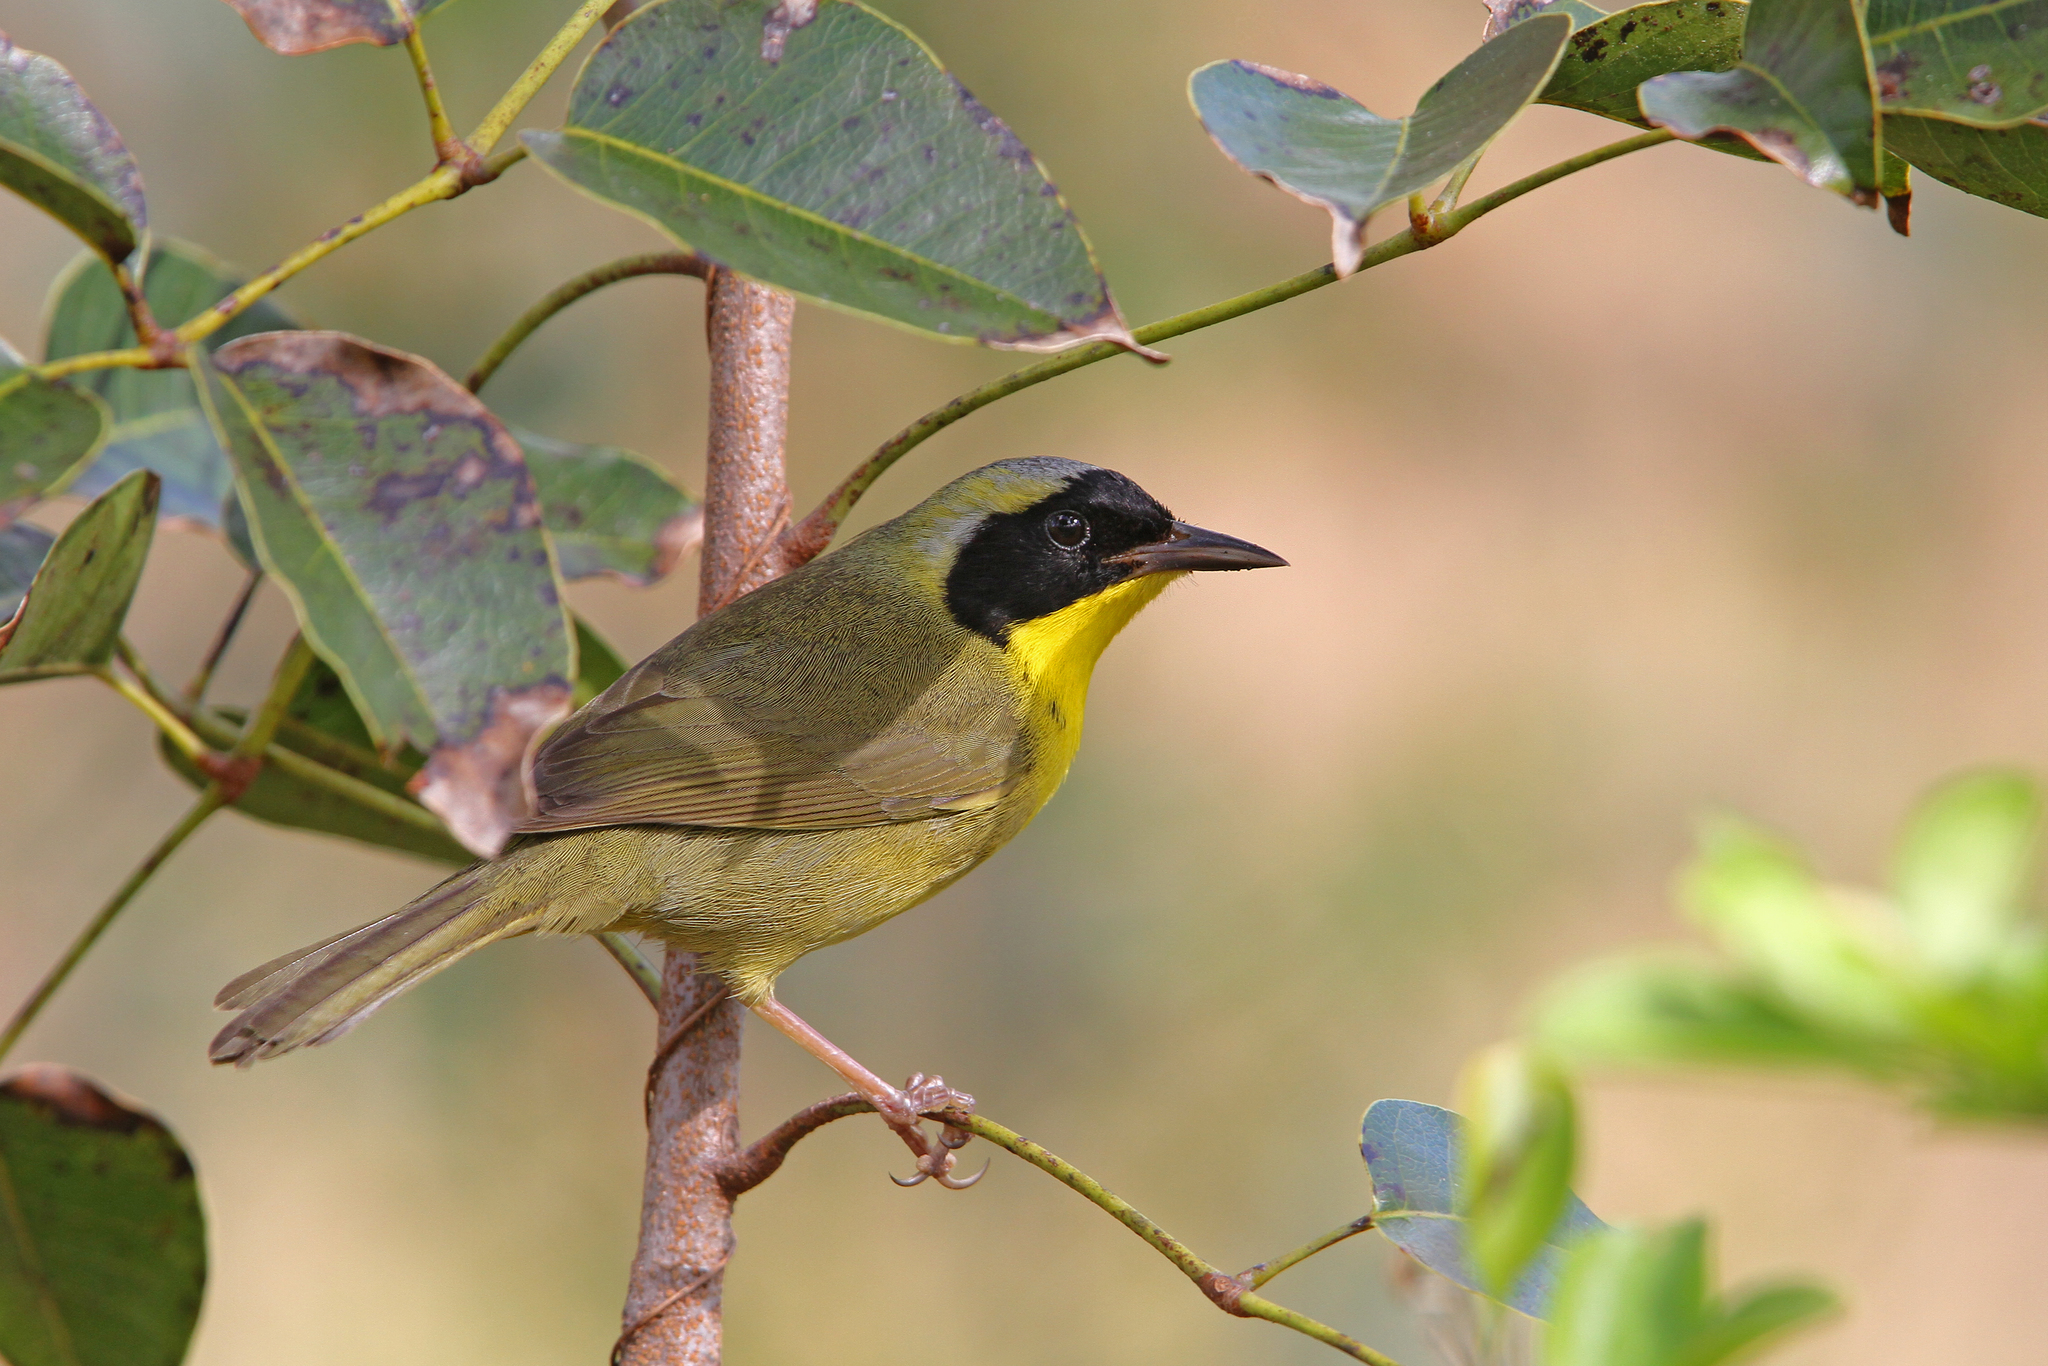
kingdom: Animalia
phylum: Chordata
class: Aves
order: Passeriformes
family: Parulidae
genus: Geothlypis
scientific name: Geothlypis rostrata
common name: Bahama yellowthroat
